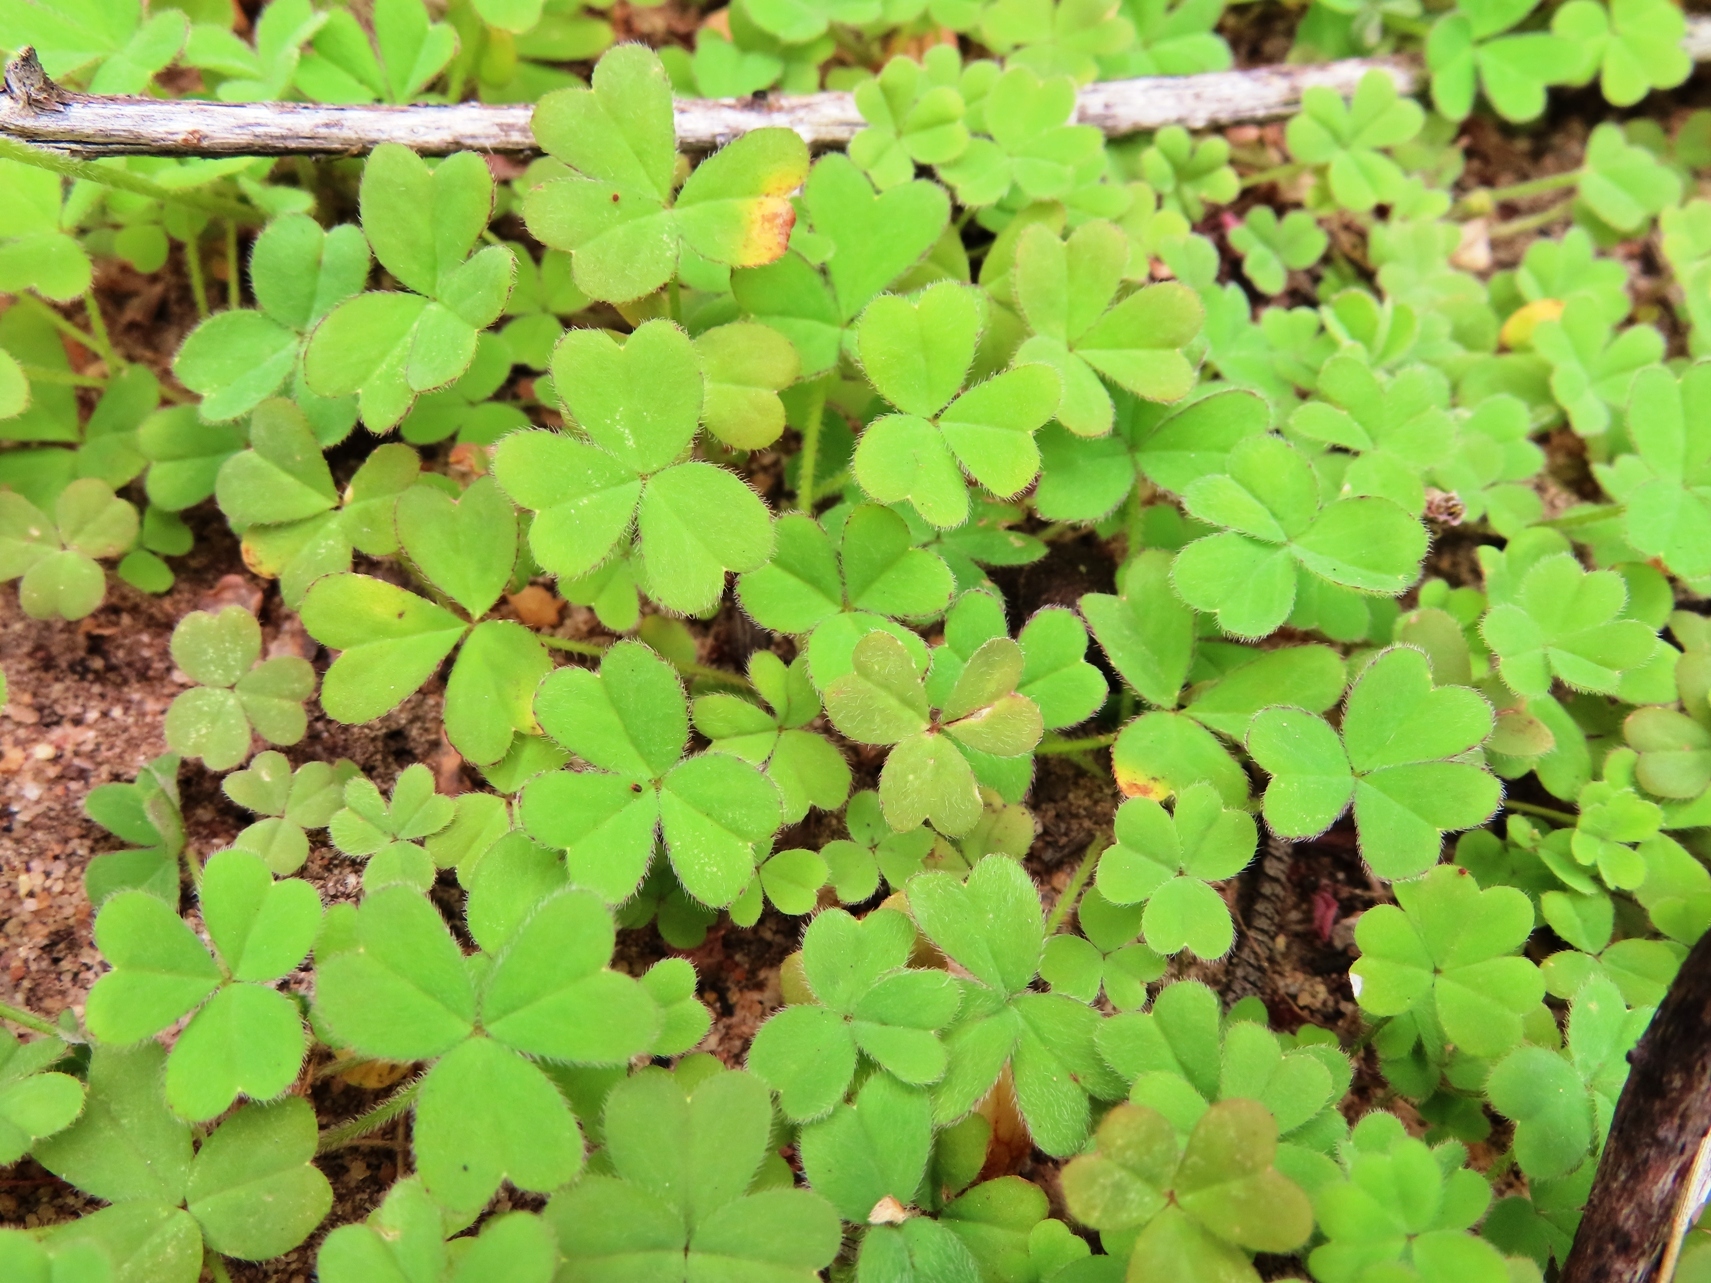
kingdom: Plantae
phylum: Tracheophyta
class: Magnoliopsida
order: Oxalidales
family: Oxalidaceae
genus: Oxalis
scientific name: Oxalis obtusa
